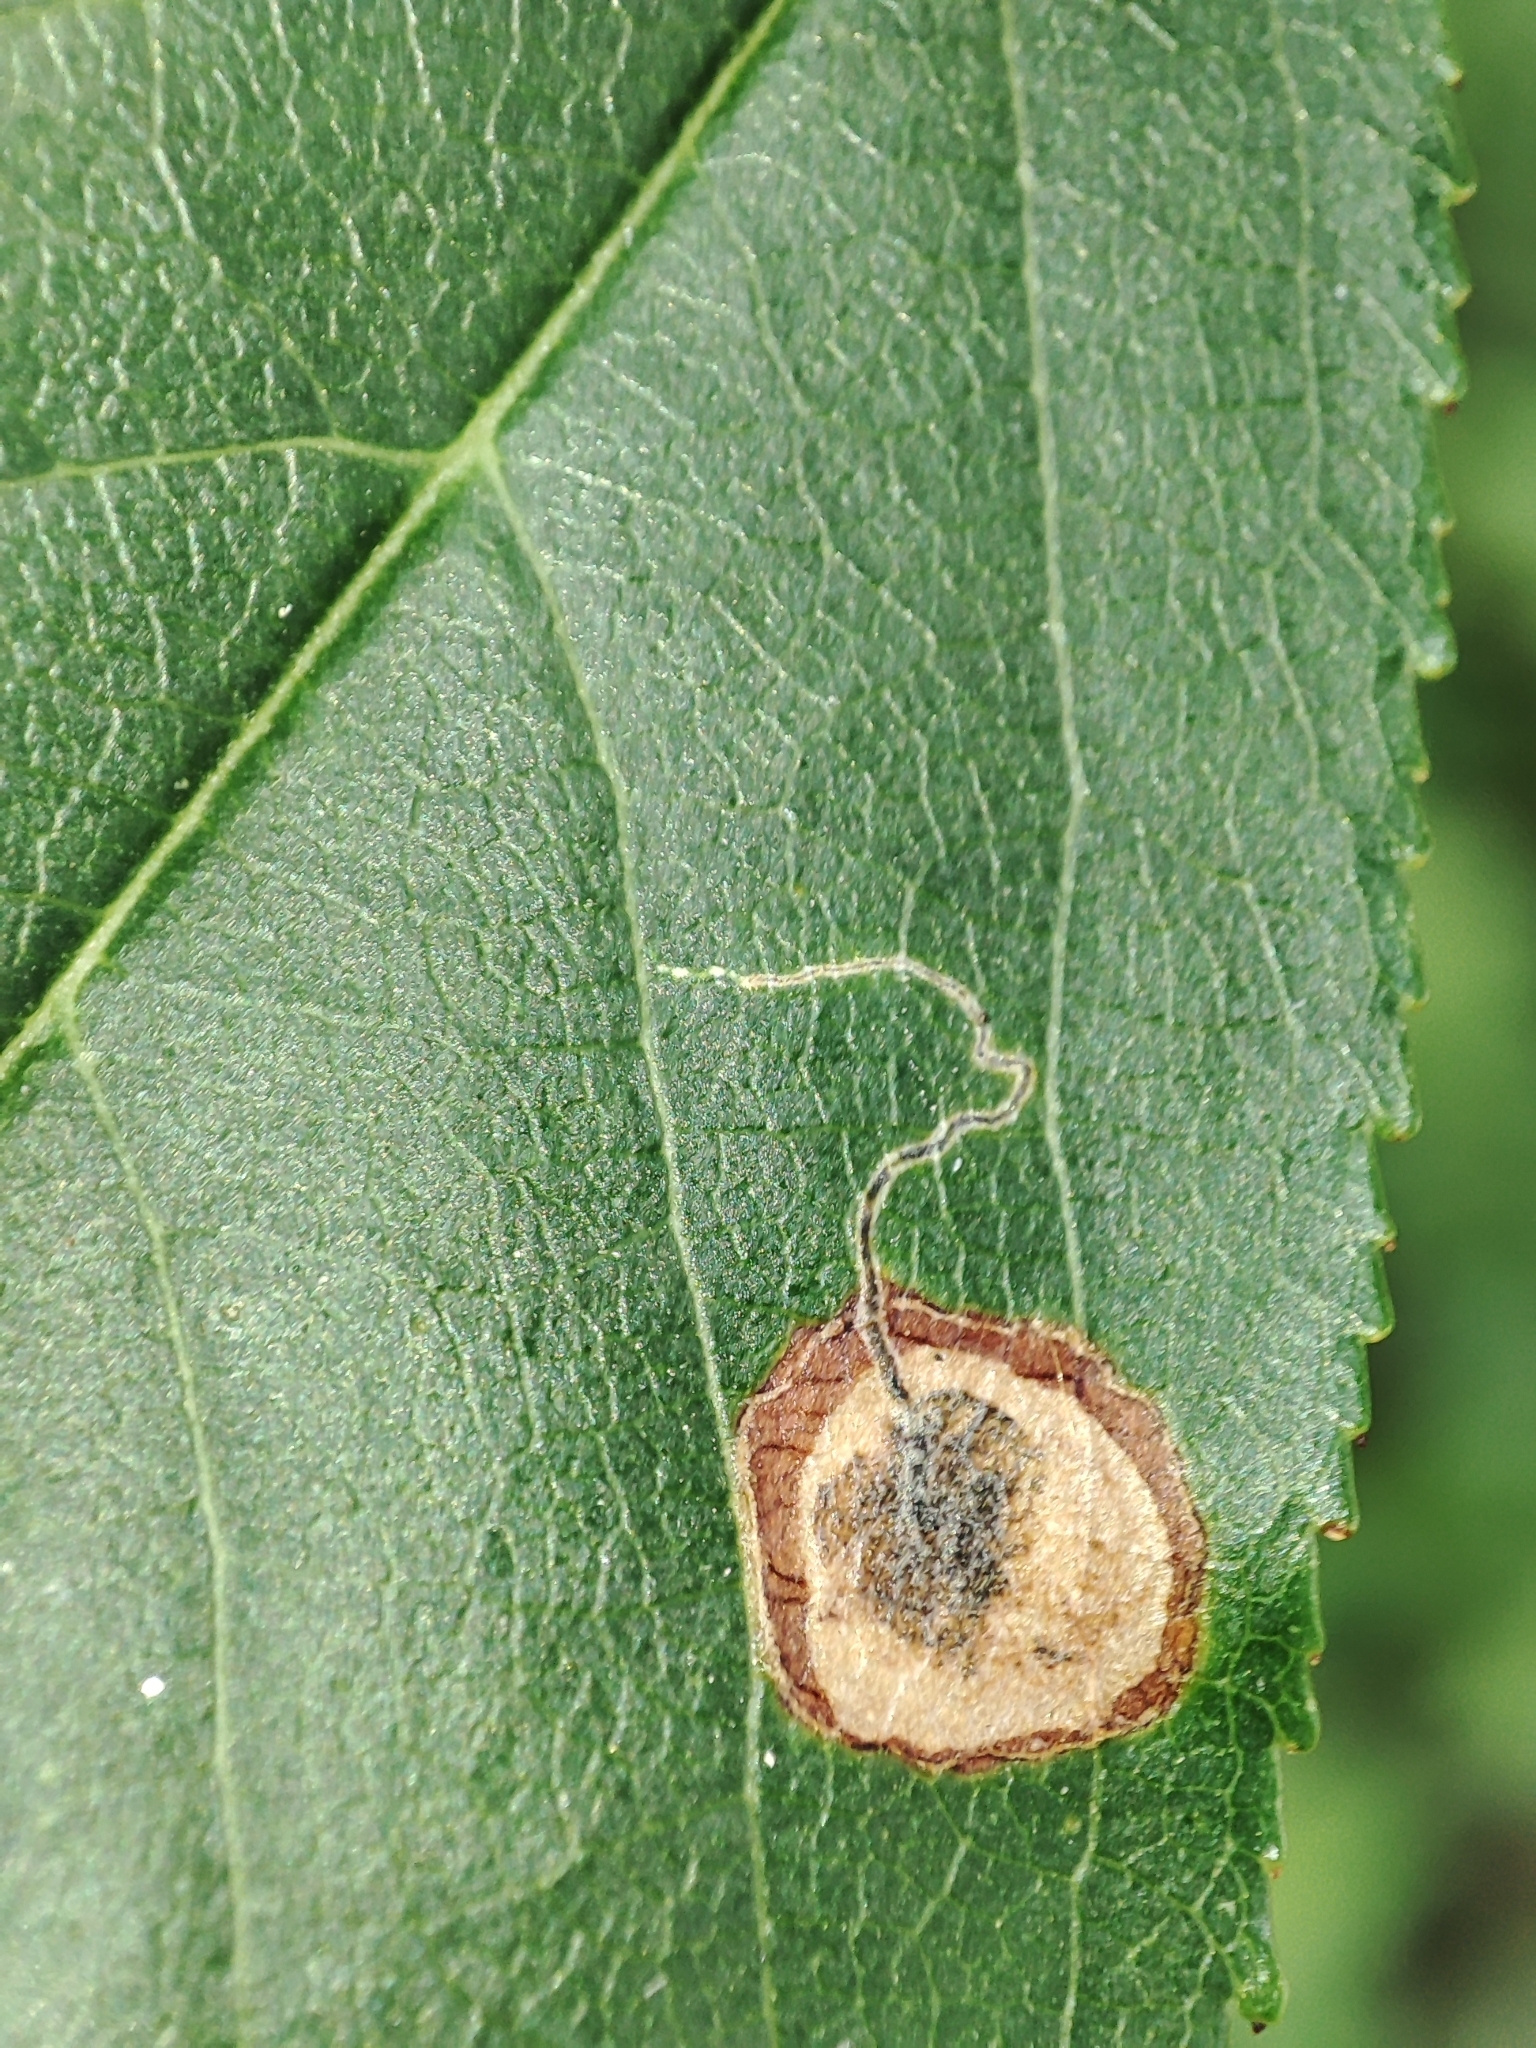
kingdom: Animalia
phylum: Arthropoda
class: Insecta
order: Lepidoptera
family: Nepticulidae
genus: Stigmella
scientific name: Stigmella plagicolella
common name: Scrubland pigmy
